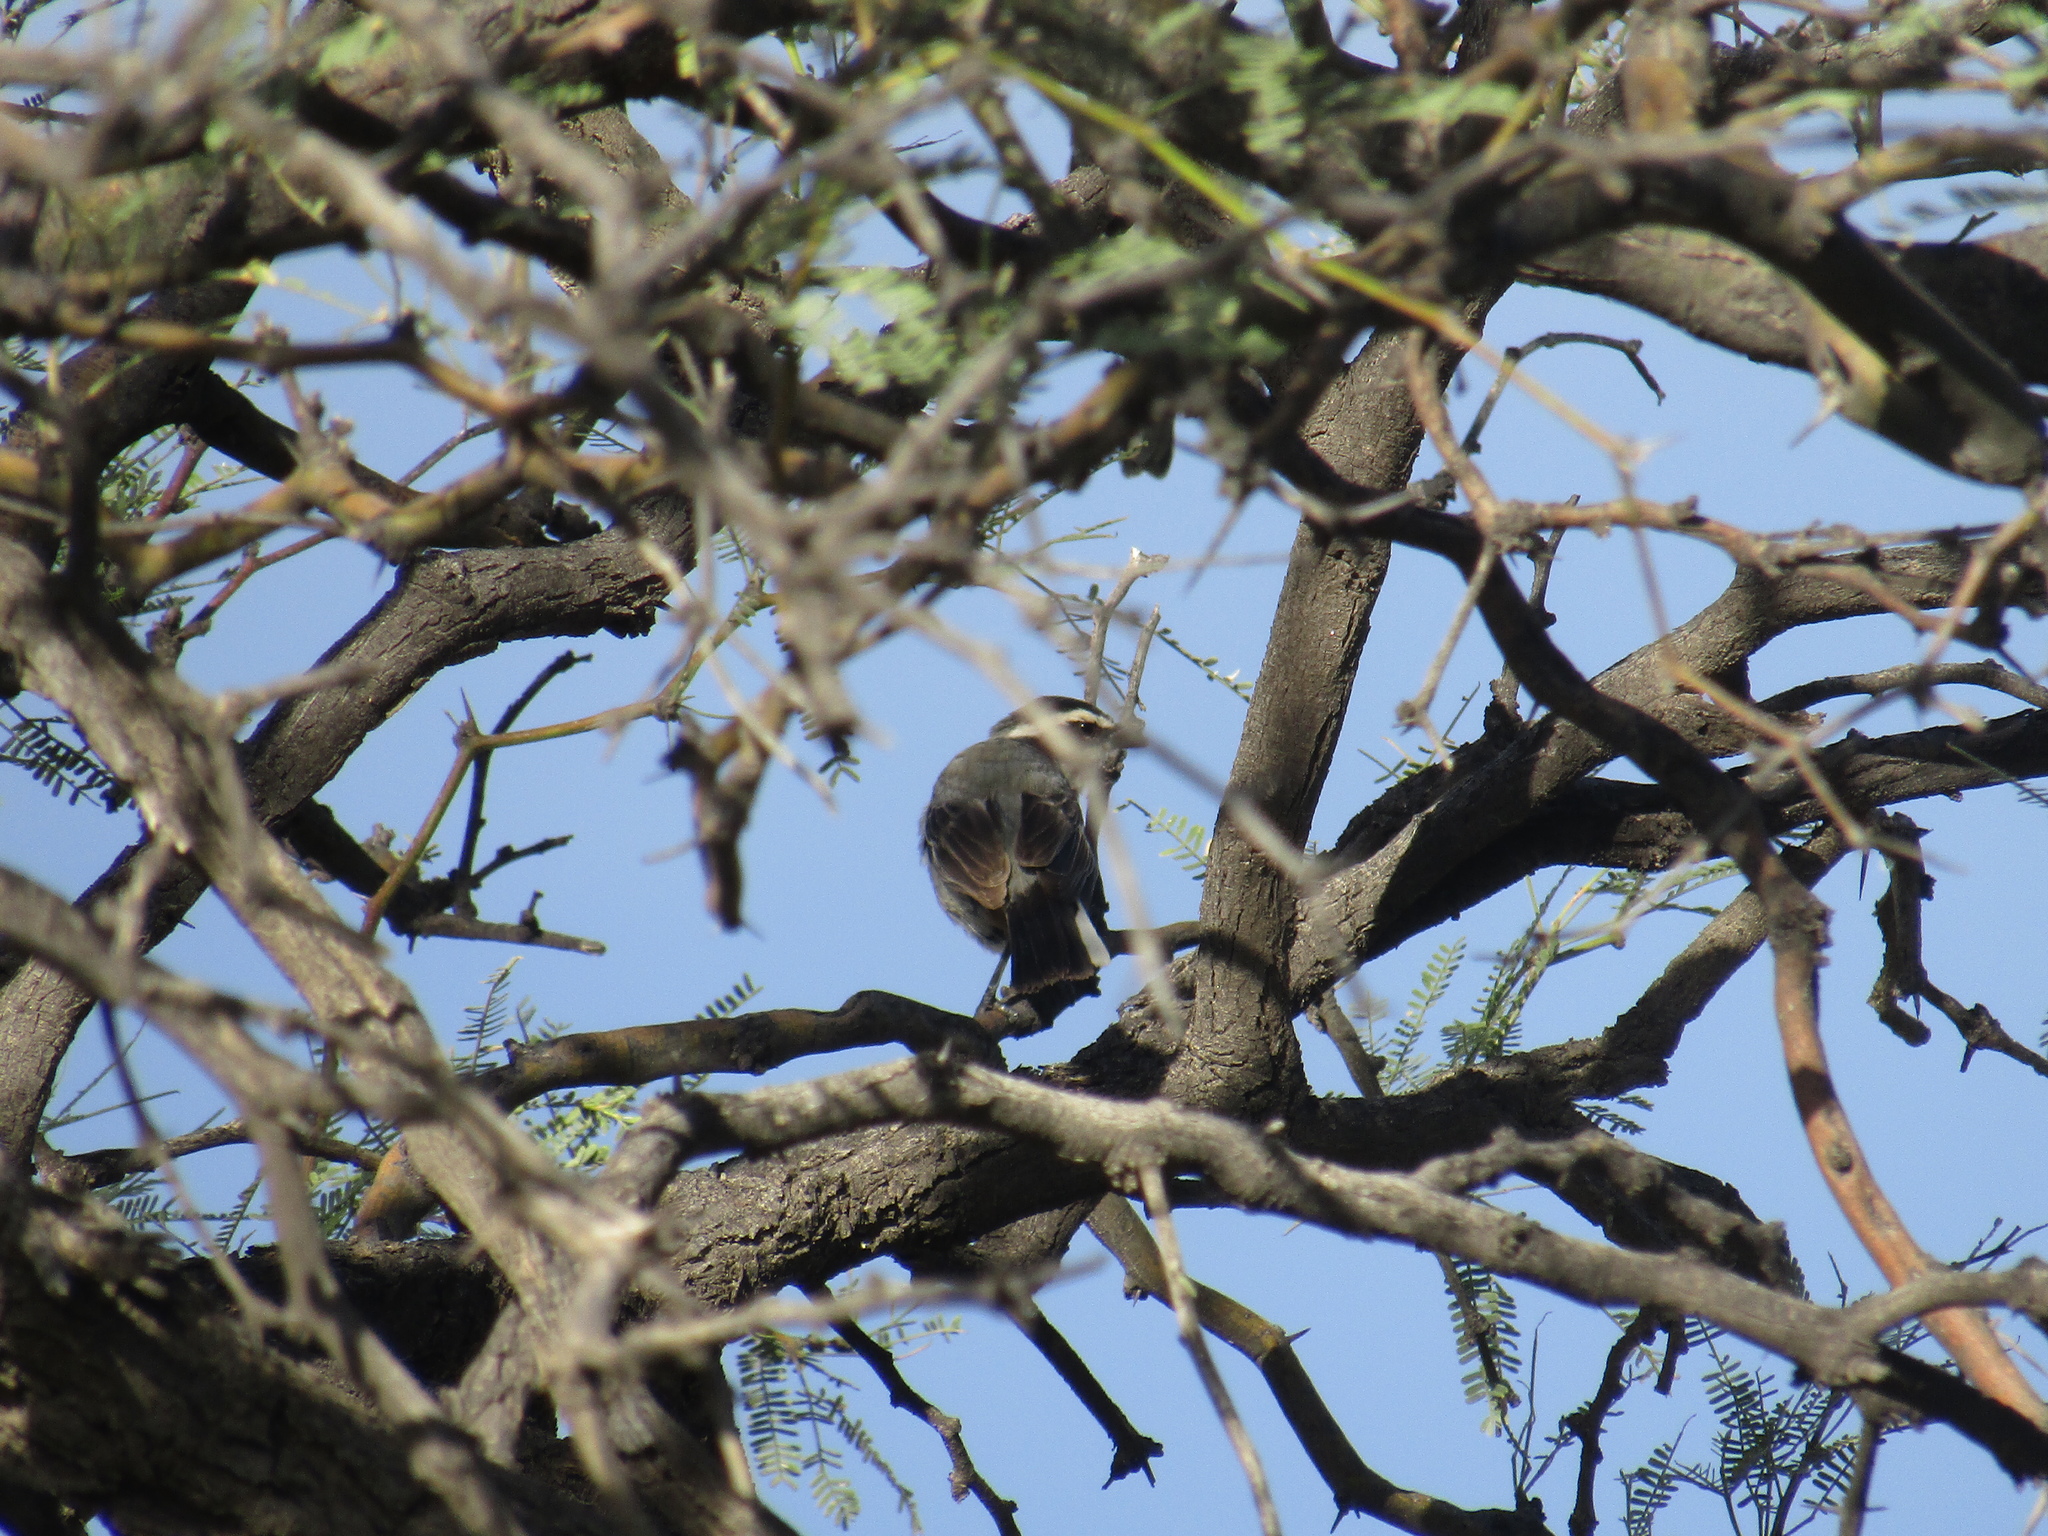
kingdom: Animalia
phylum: Chordata
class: Aves
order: Passeriformes
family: Thraupidae
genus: Microspingus
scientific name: Microspingus torquatus
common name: Ringed warbling-finch
